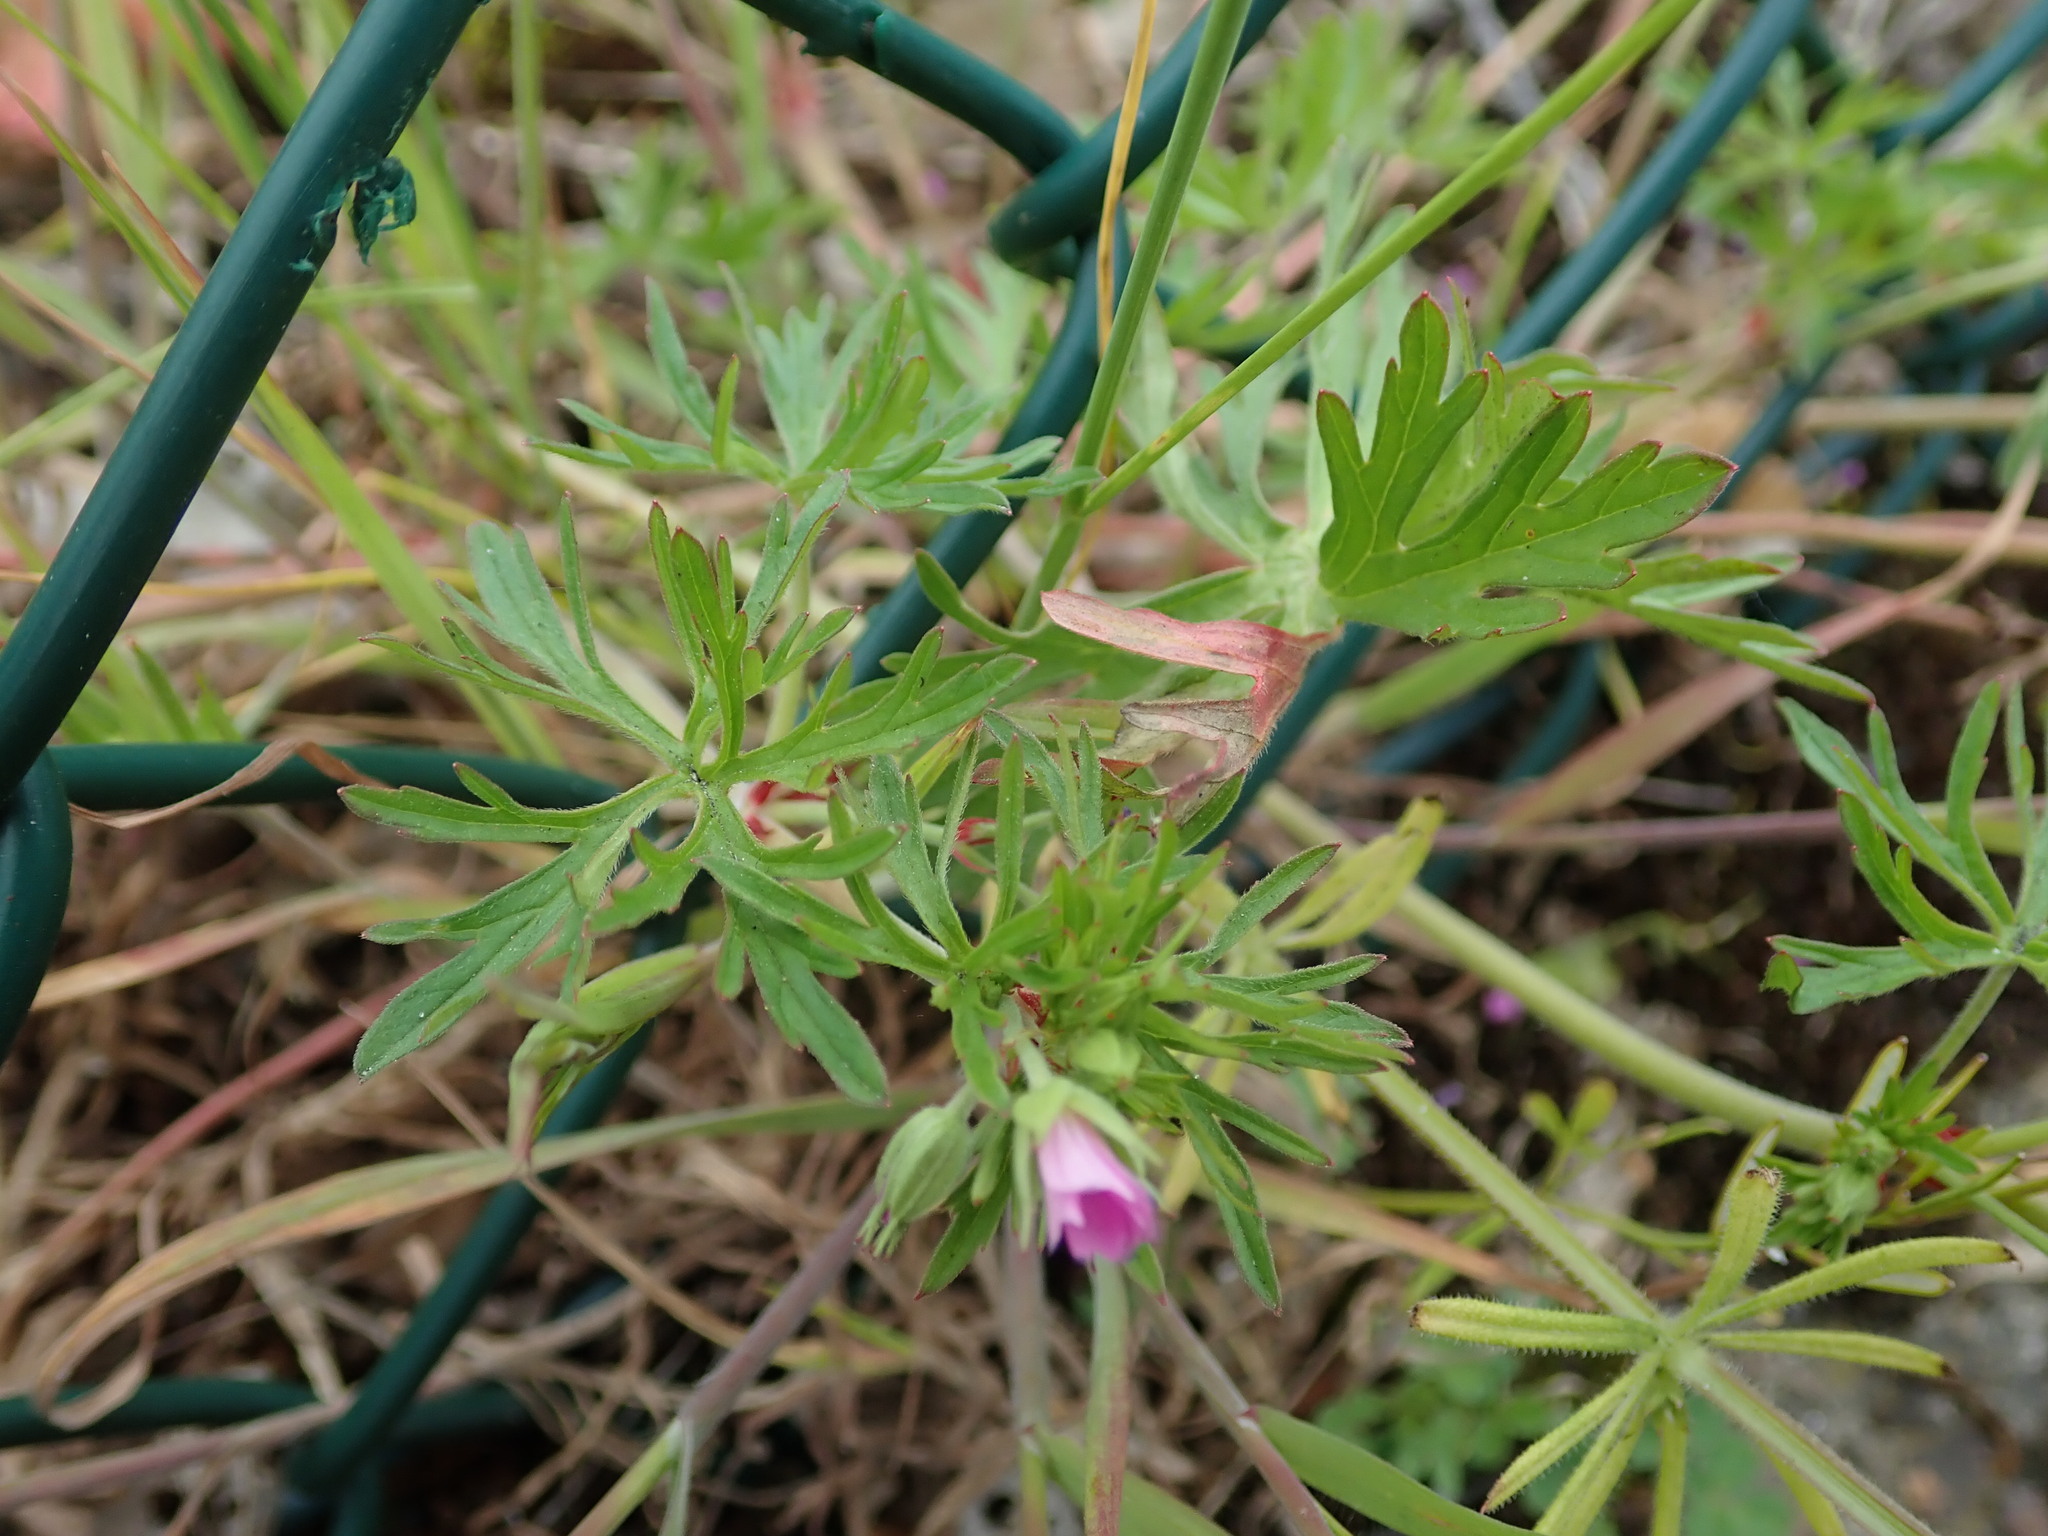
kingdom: Plantae
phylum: Tracheophyta
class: Magnoliopsida
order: Geraniales
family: Geraniaceae
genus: Geranium
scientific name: Geranium dissectum
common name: Cut-leaved crane's-bill
